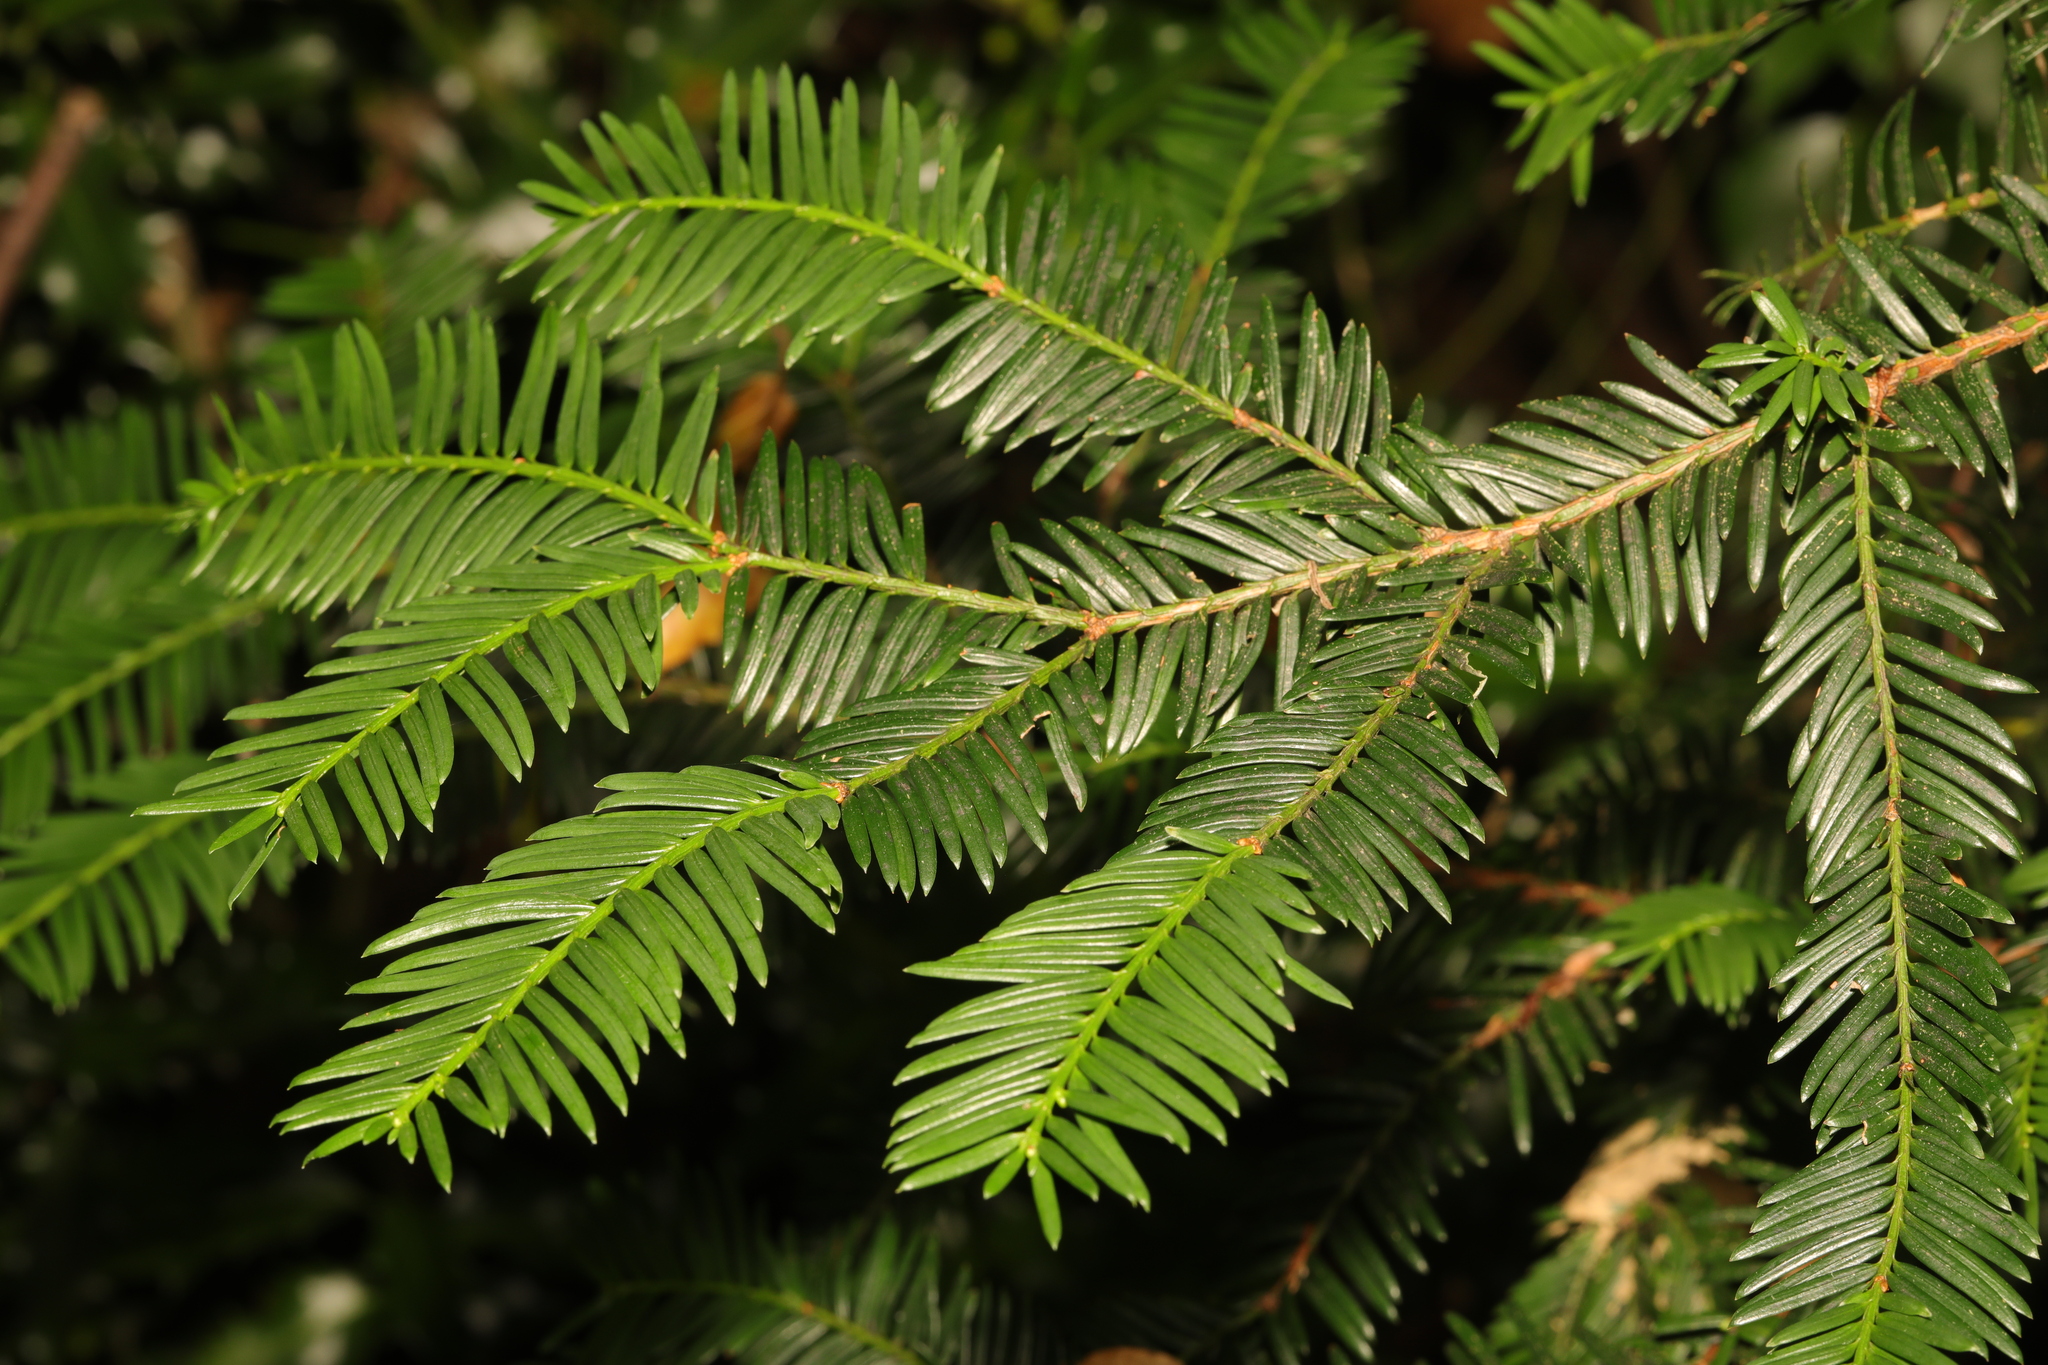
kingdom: Plantae
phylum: Tracheophyta
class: Pinopsida
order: Pinales
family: Taxaceae
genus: Taxus
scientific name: Taxus baccata
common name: Yew
